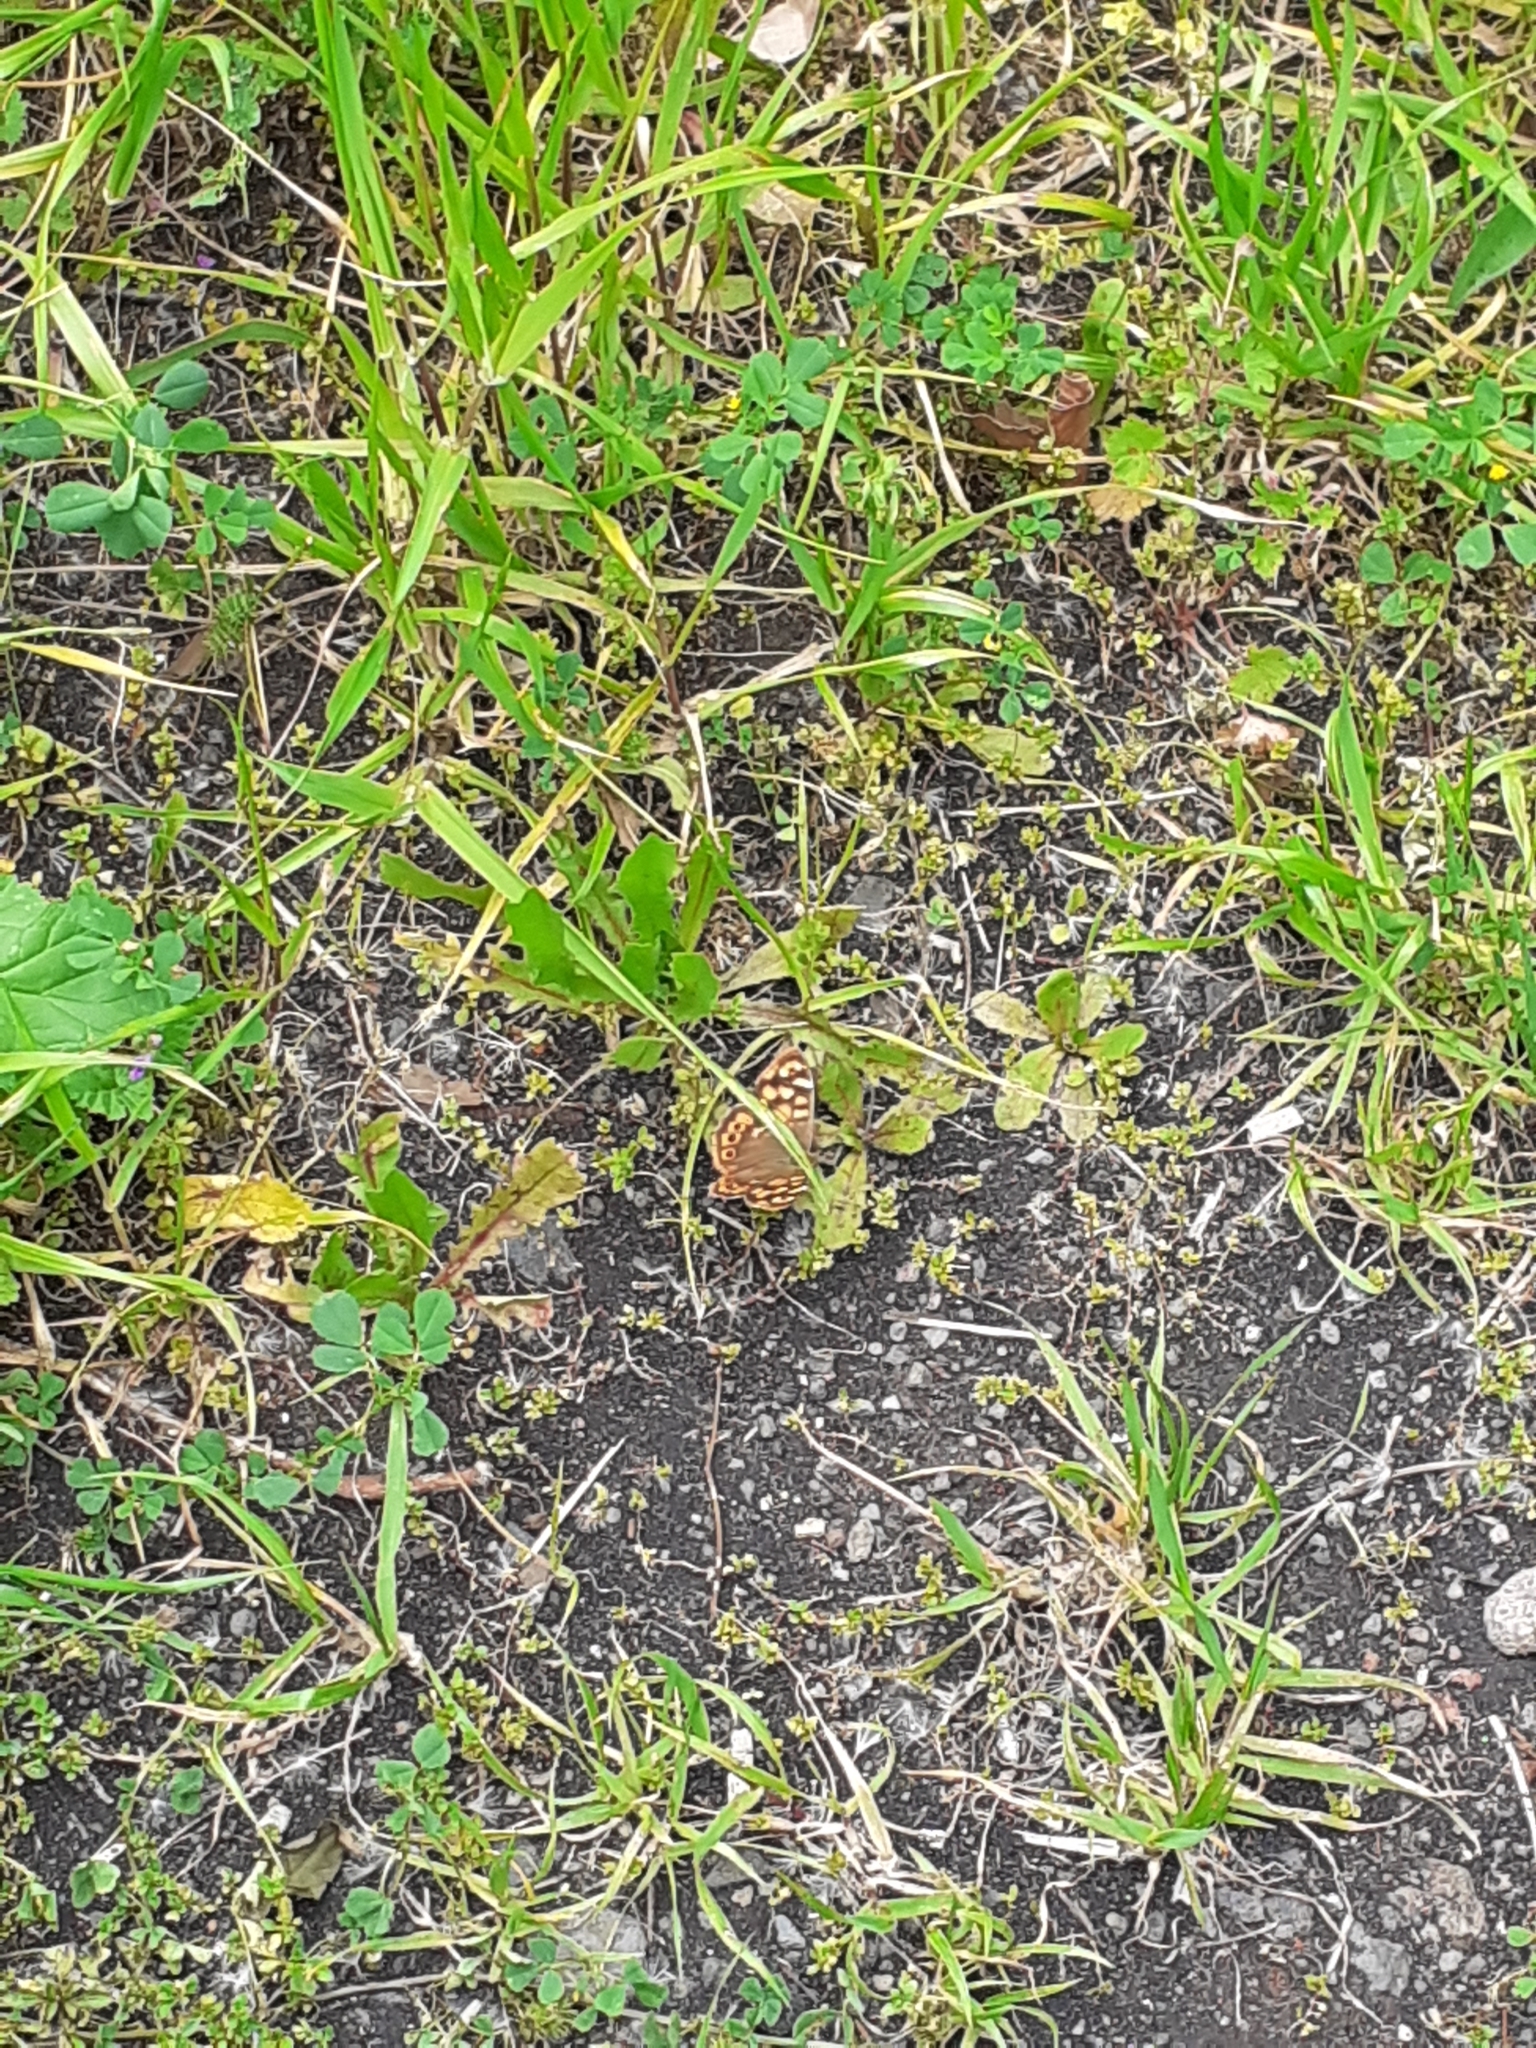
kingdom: Animalia
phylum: Arthropoda
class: Insecta
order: Lepidoptera
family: Nymphalidae
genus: Pararge
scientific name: Pararge aegeria
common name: Speckled wood
